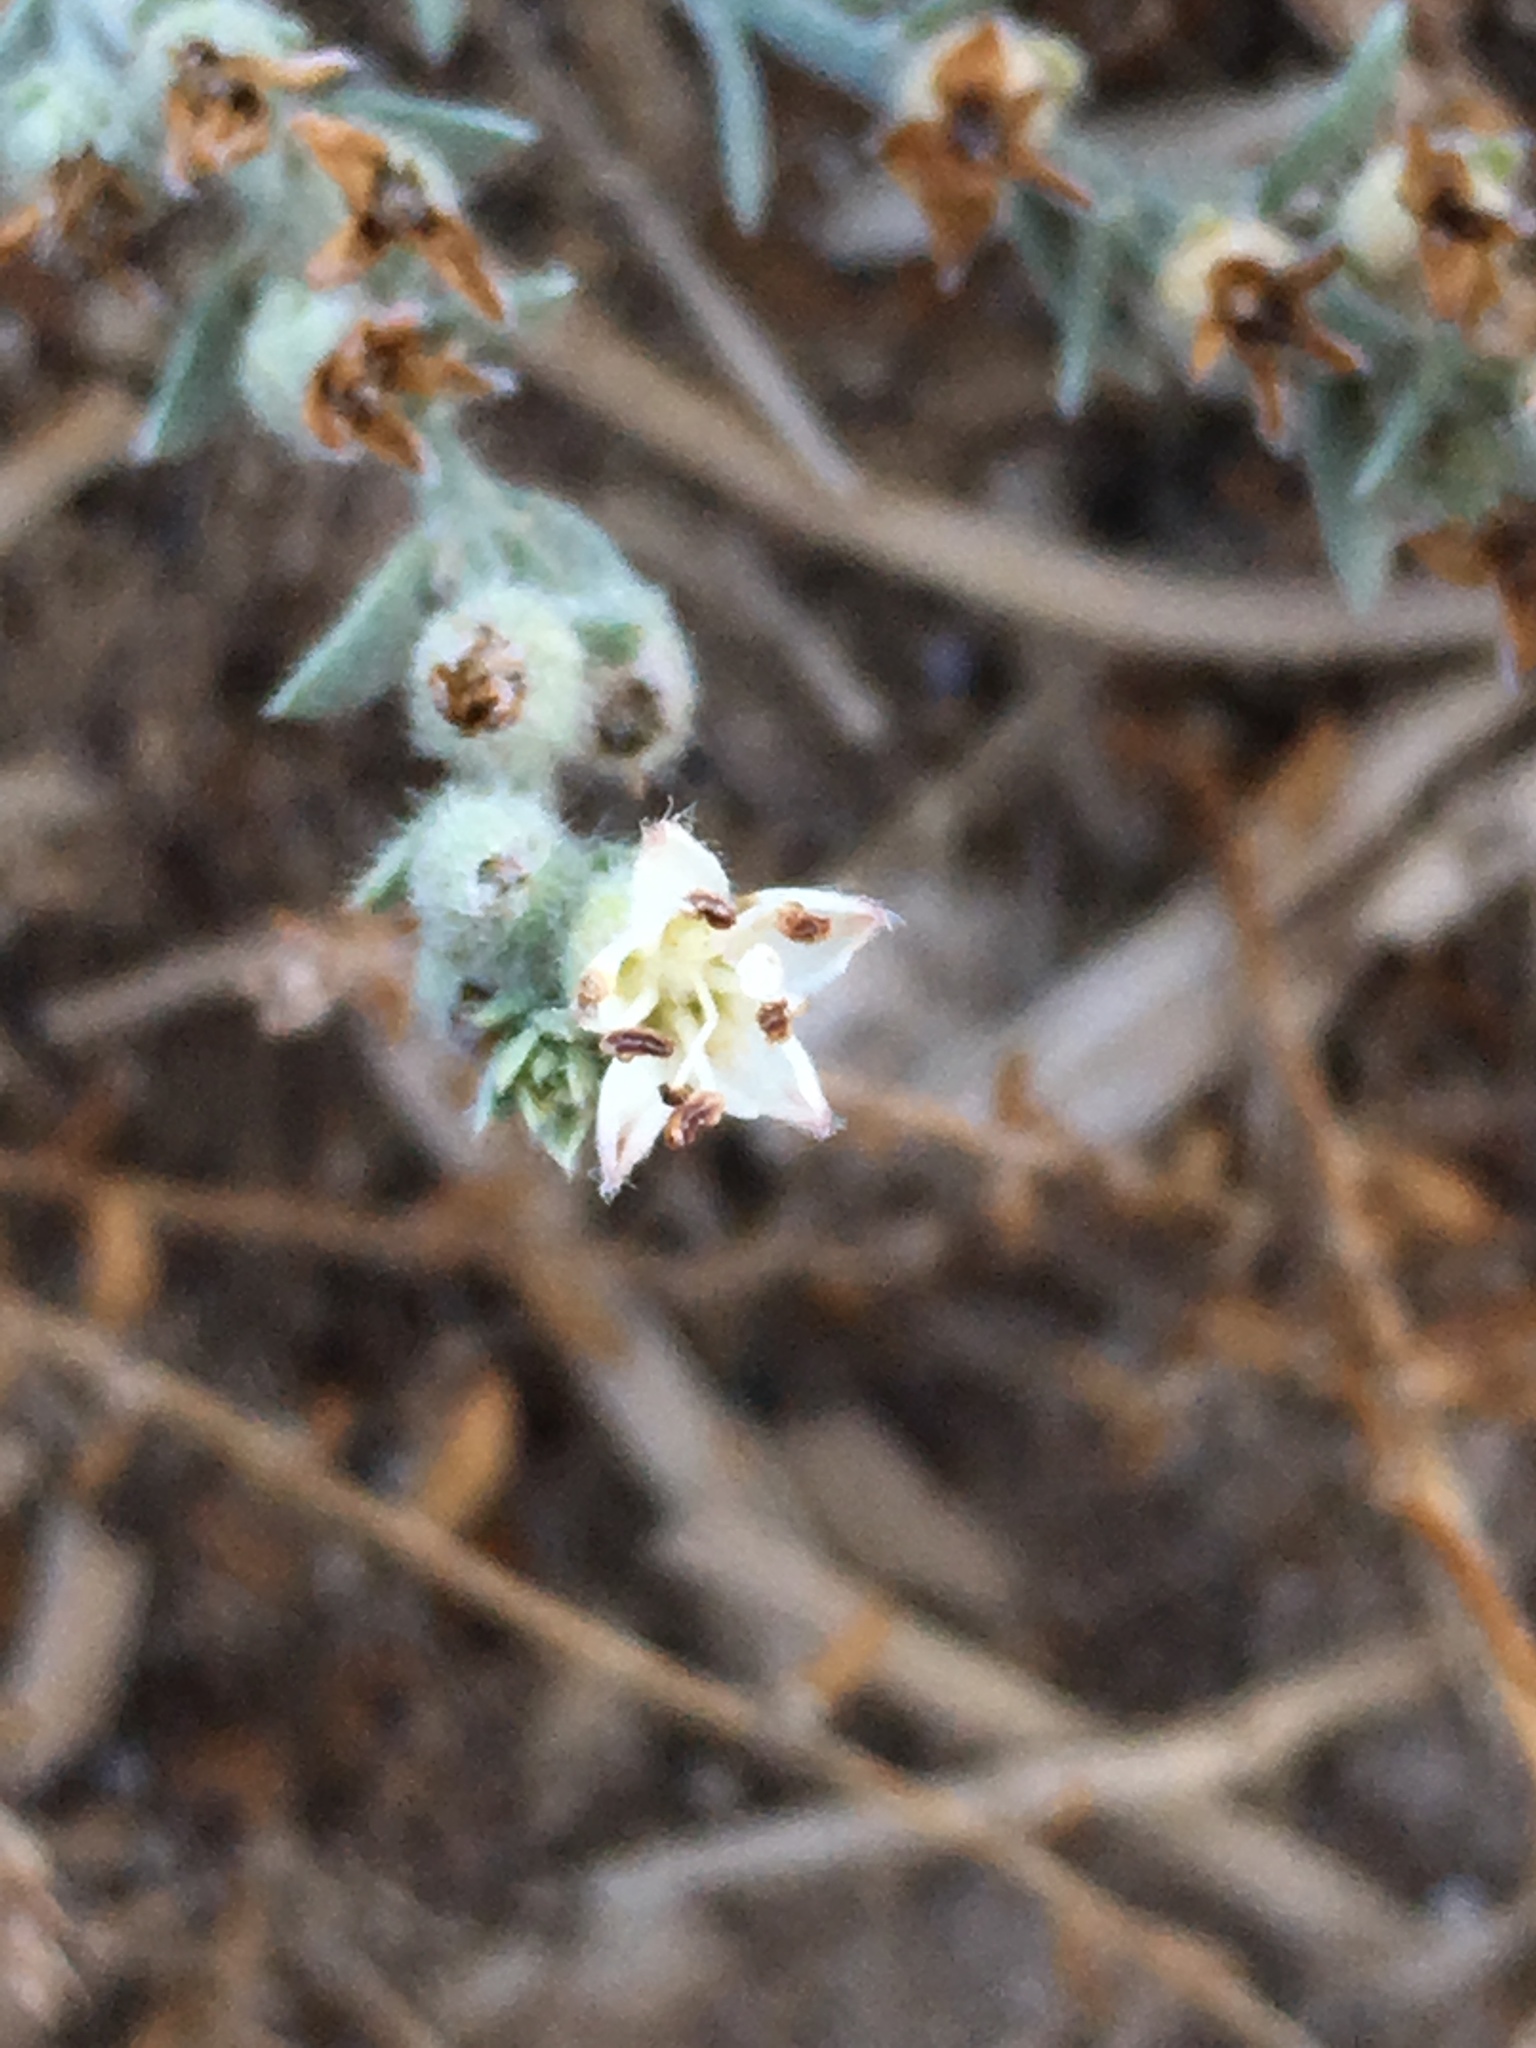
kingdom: Plantae
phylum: Tracheophyta
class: Magnoliopsida
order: Solanales
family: Convolvulaceae
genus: Cressa
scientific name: Cressa truxillensis
